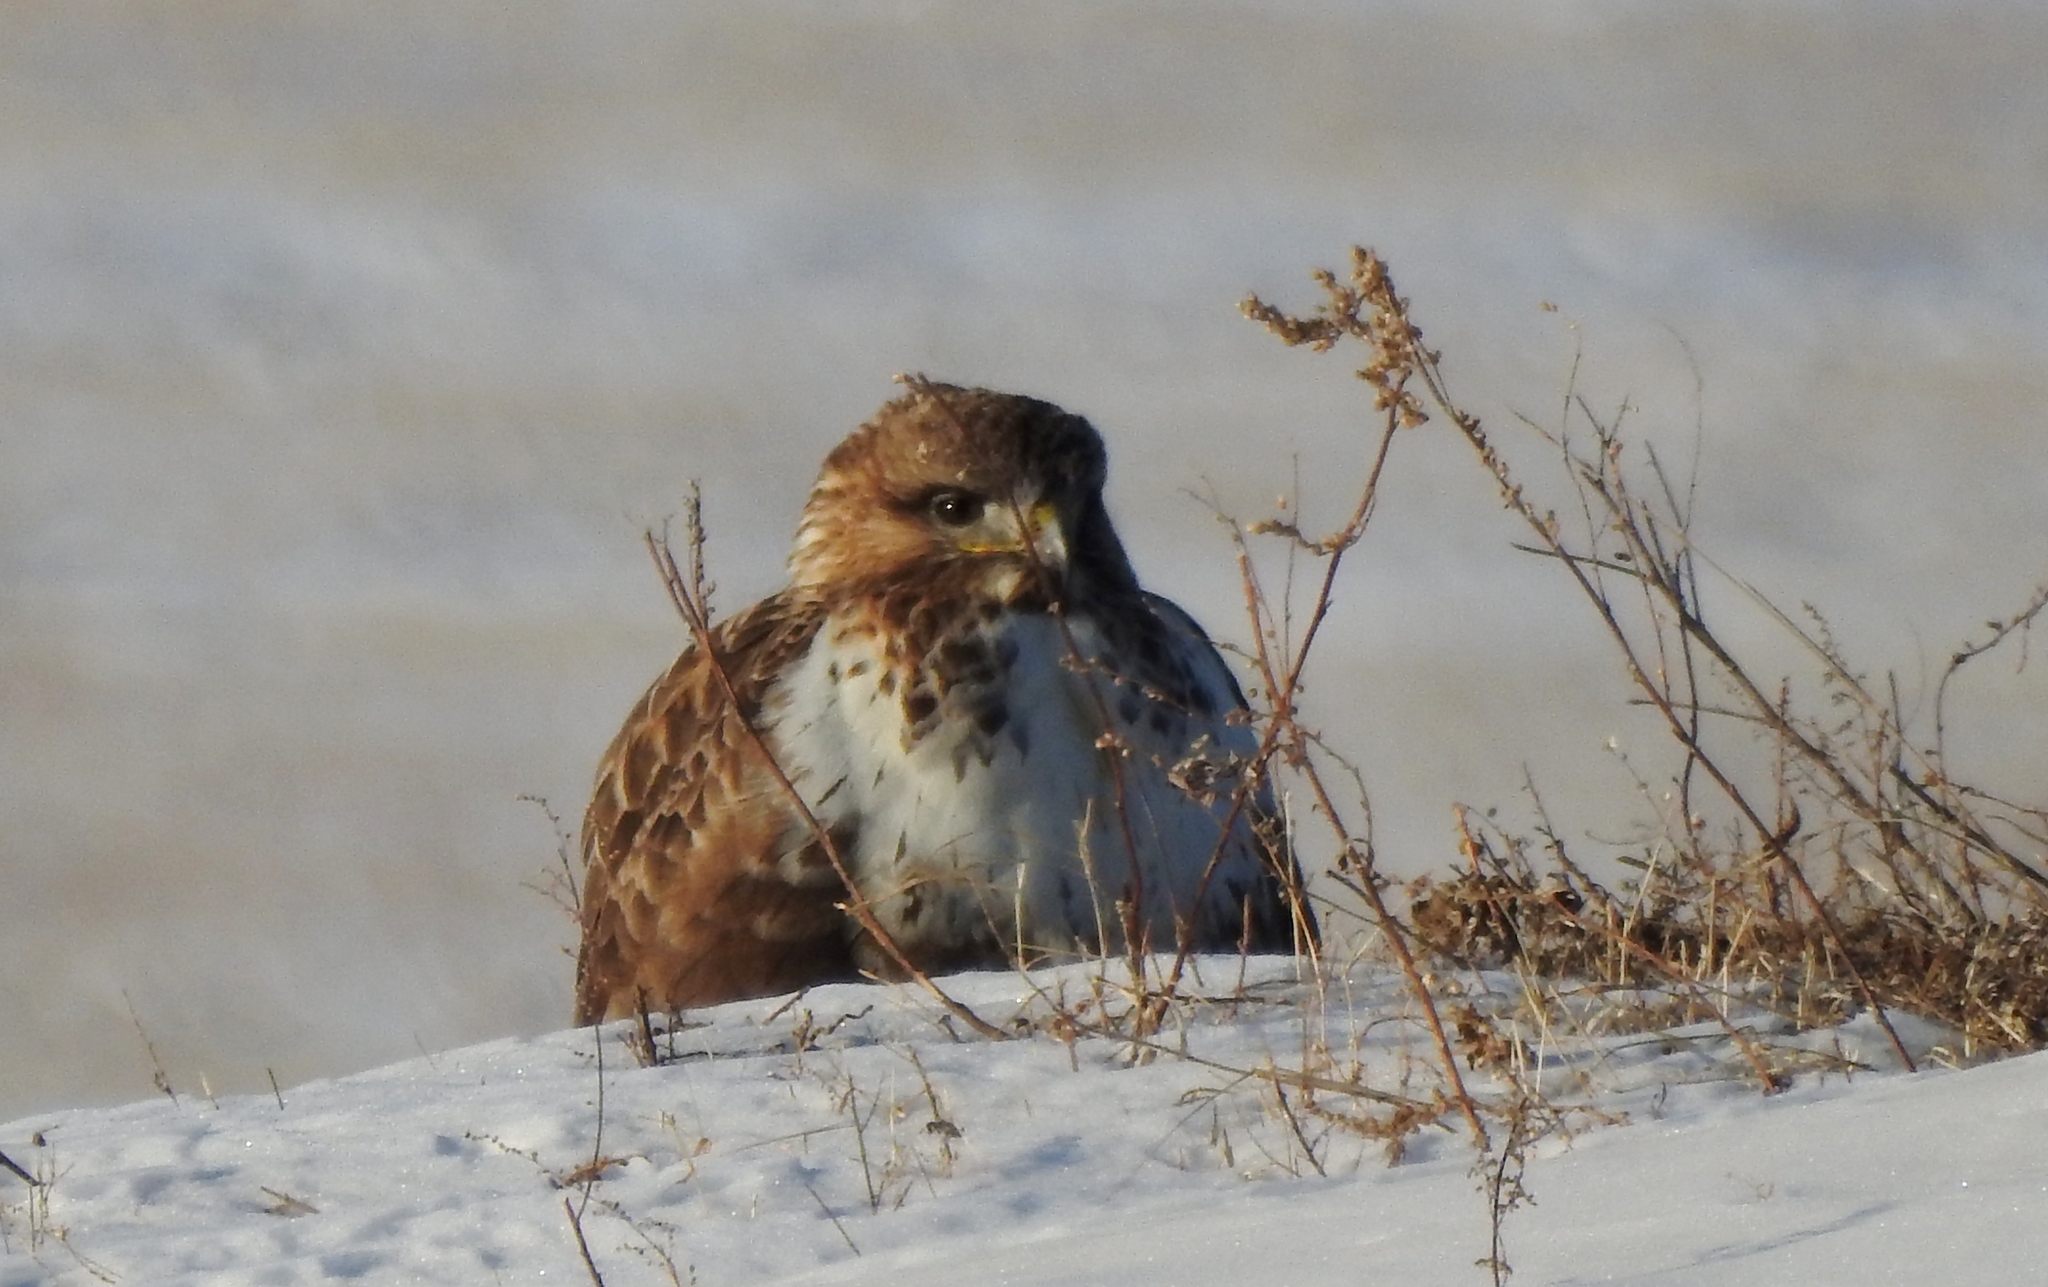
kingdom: Animalia
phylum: Chordata
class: Aves
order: Accipitriformes
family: Accipitridae
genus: Buteo
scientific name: Buteo hemilasius
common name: Upland buzzard
